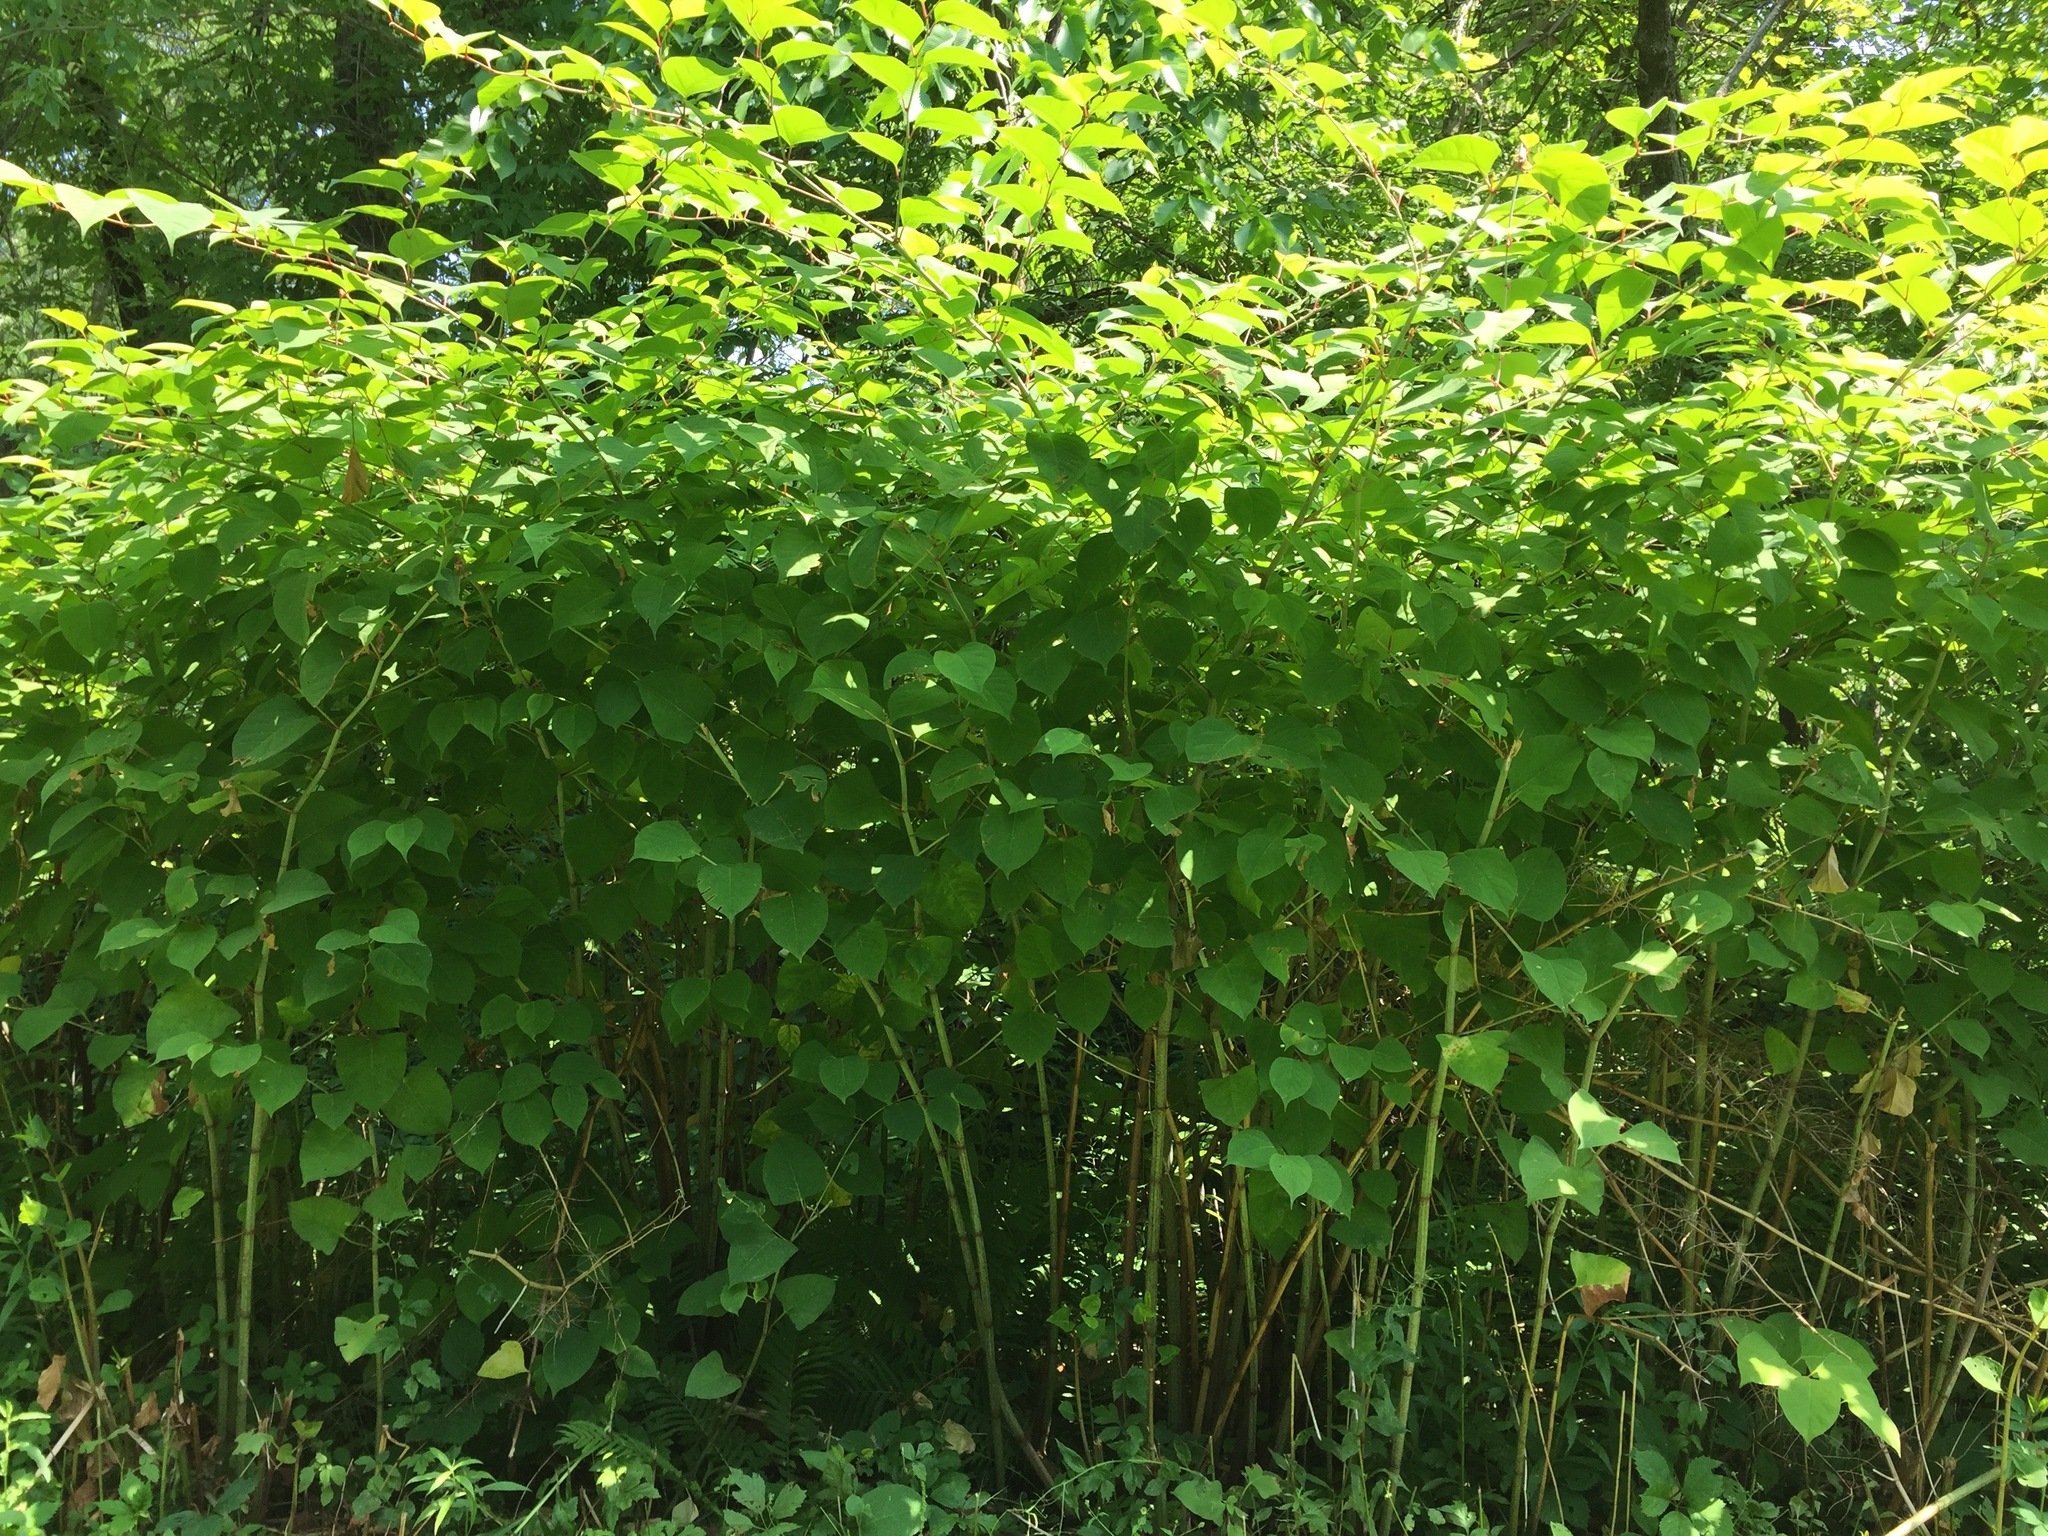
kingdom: Plantae
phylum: Tracheophyta
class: Magnoliopsida
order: Caryophyllales
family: Polygonaceae
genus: Reynoutria
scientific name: Reynoutria japonica
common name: Japanese knotweed
